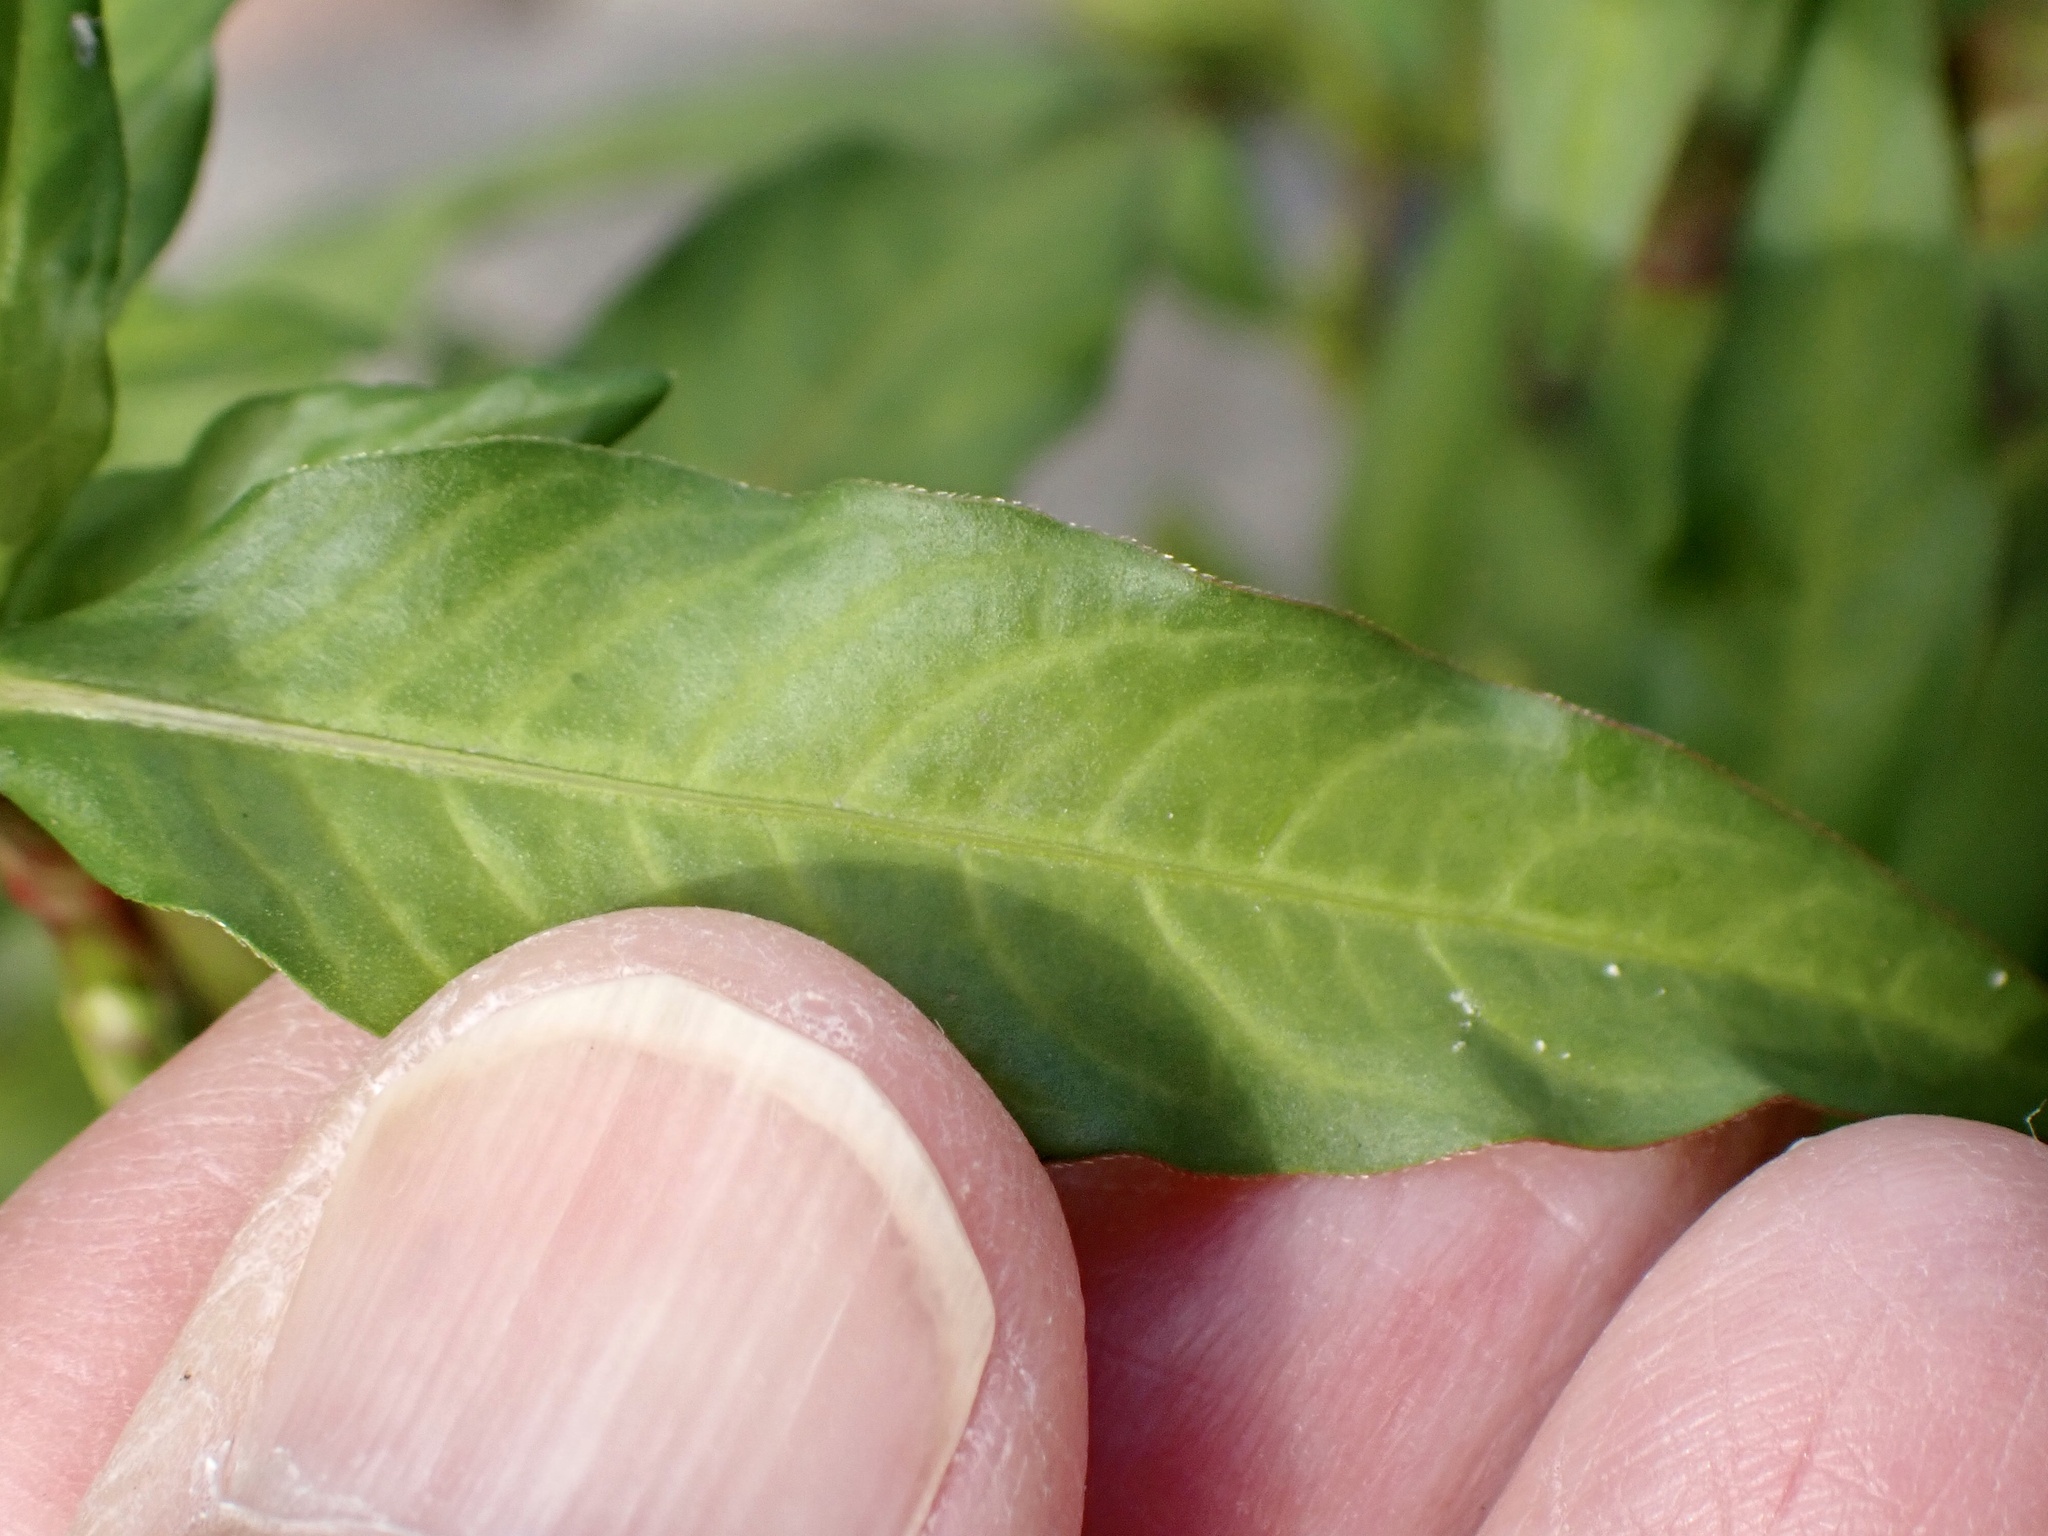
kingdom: Plantae
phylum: Tracheophyta
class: Magnoliopsida
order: Caryophyllales
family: Polygonaceae
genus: Persicaria
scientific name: Persicaria hydropiper
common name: Water-pepper
